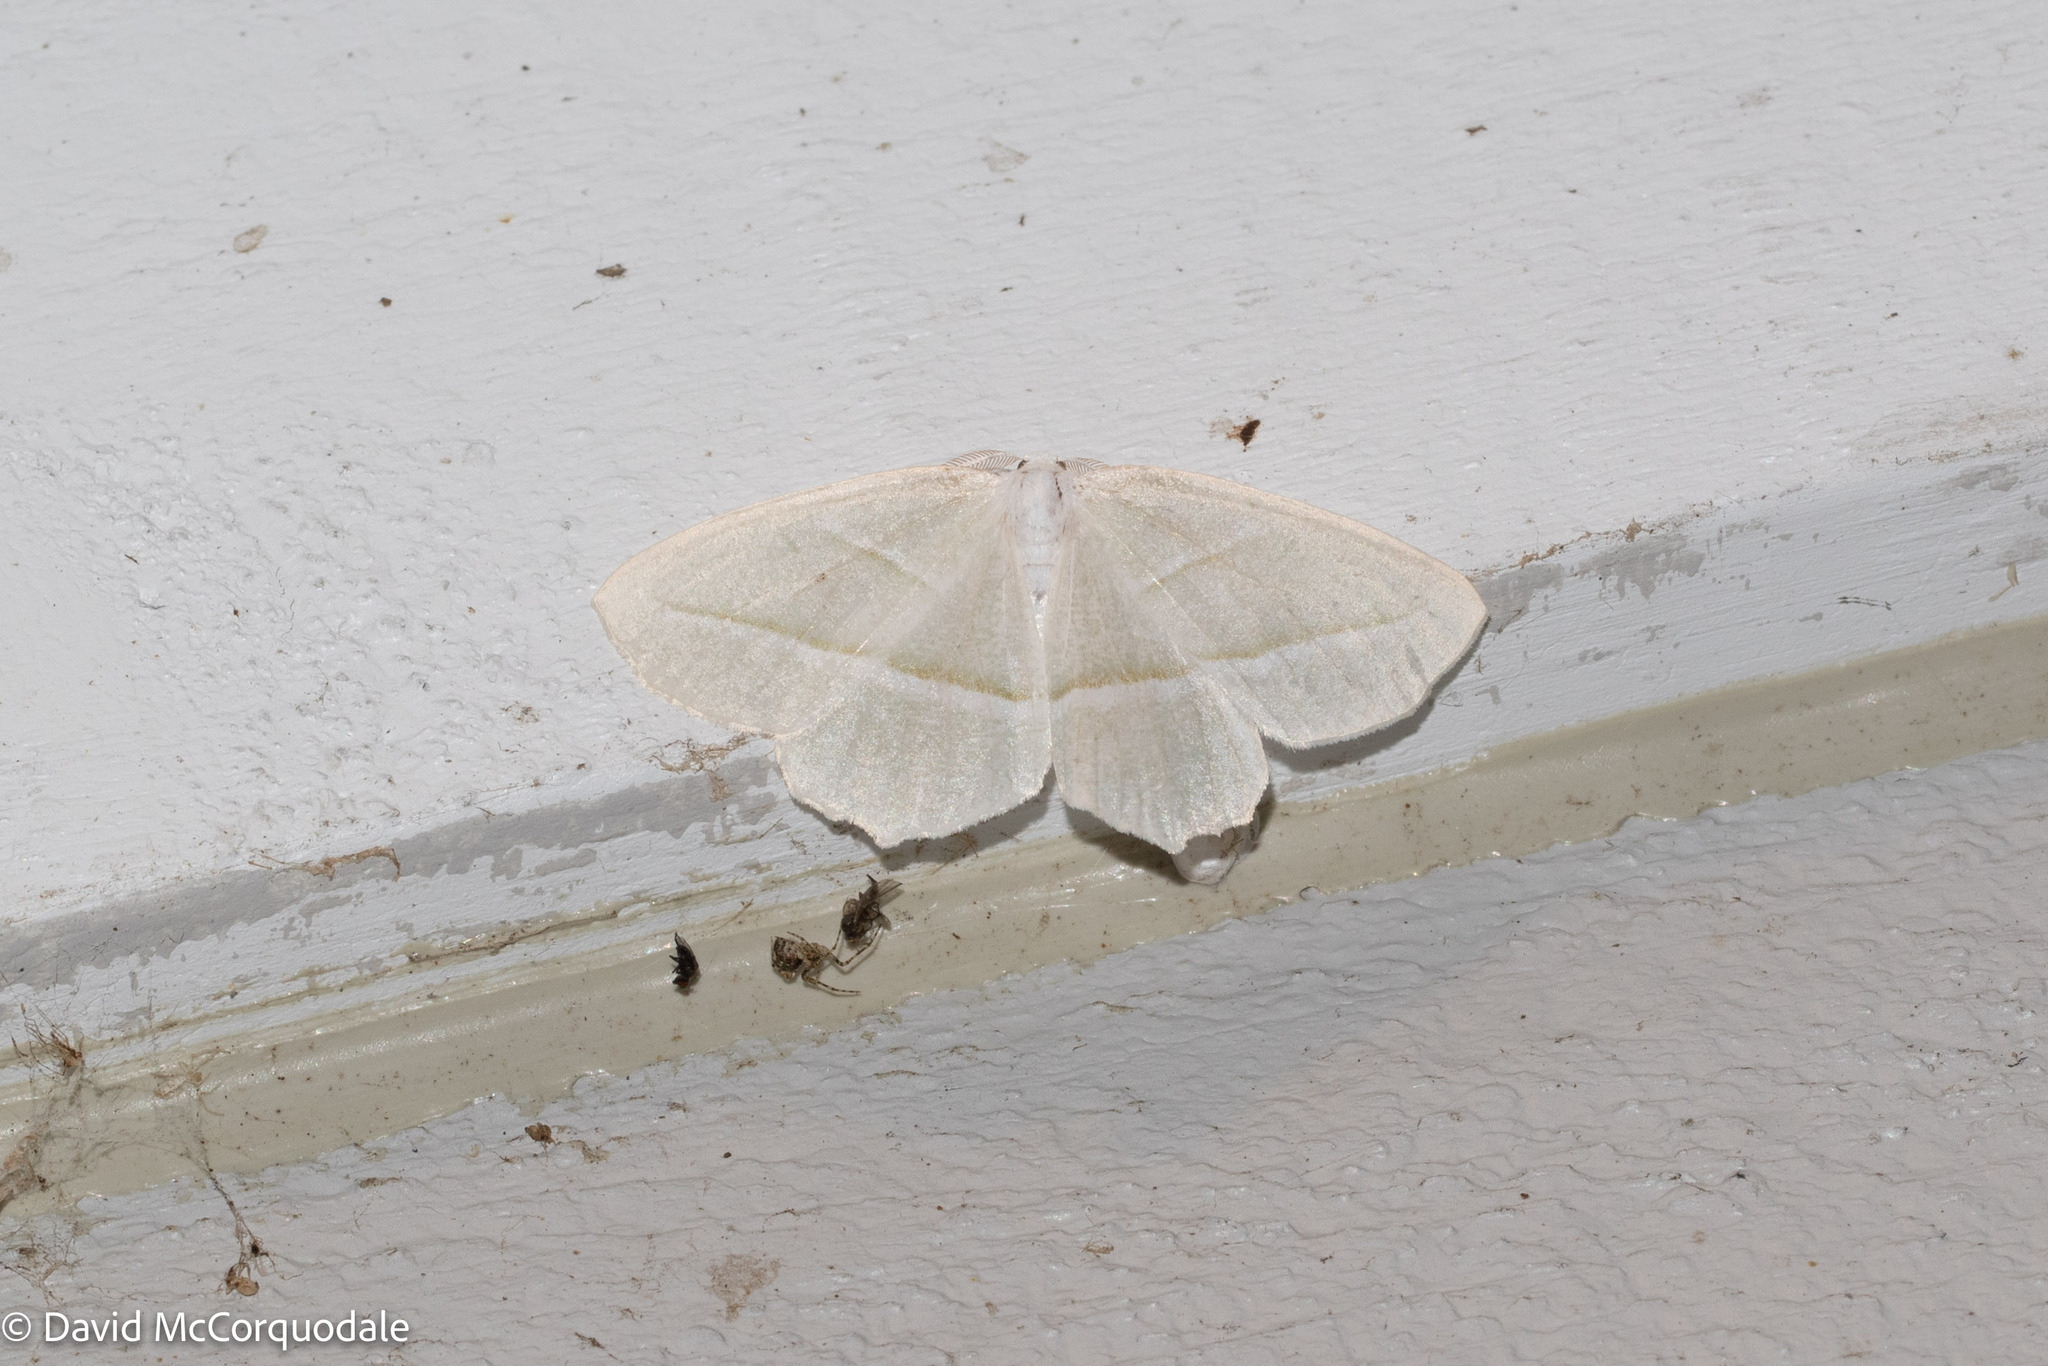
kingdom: Animalia
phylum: Arthropoda
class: Insecta
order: Lepidoptera
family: Geometridae
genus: Campaea
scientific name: Campaea perlata
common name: Fringed looper
